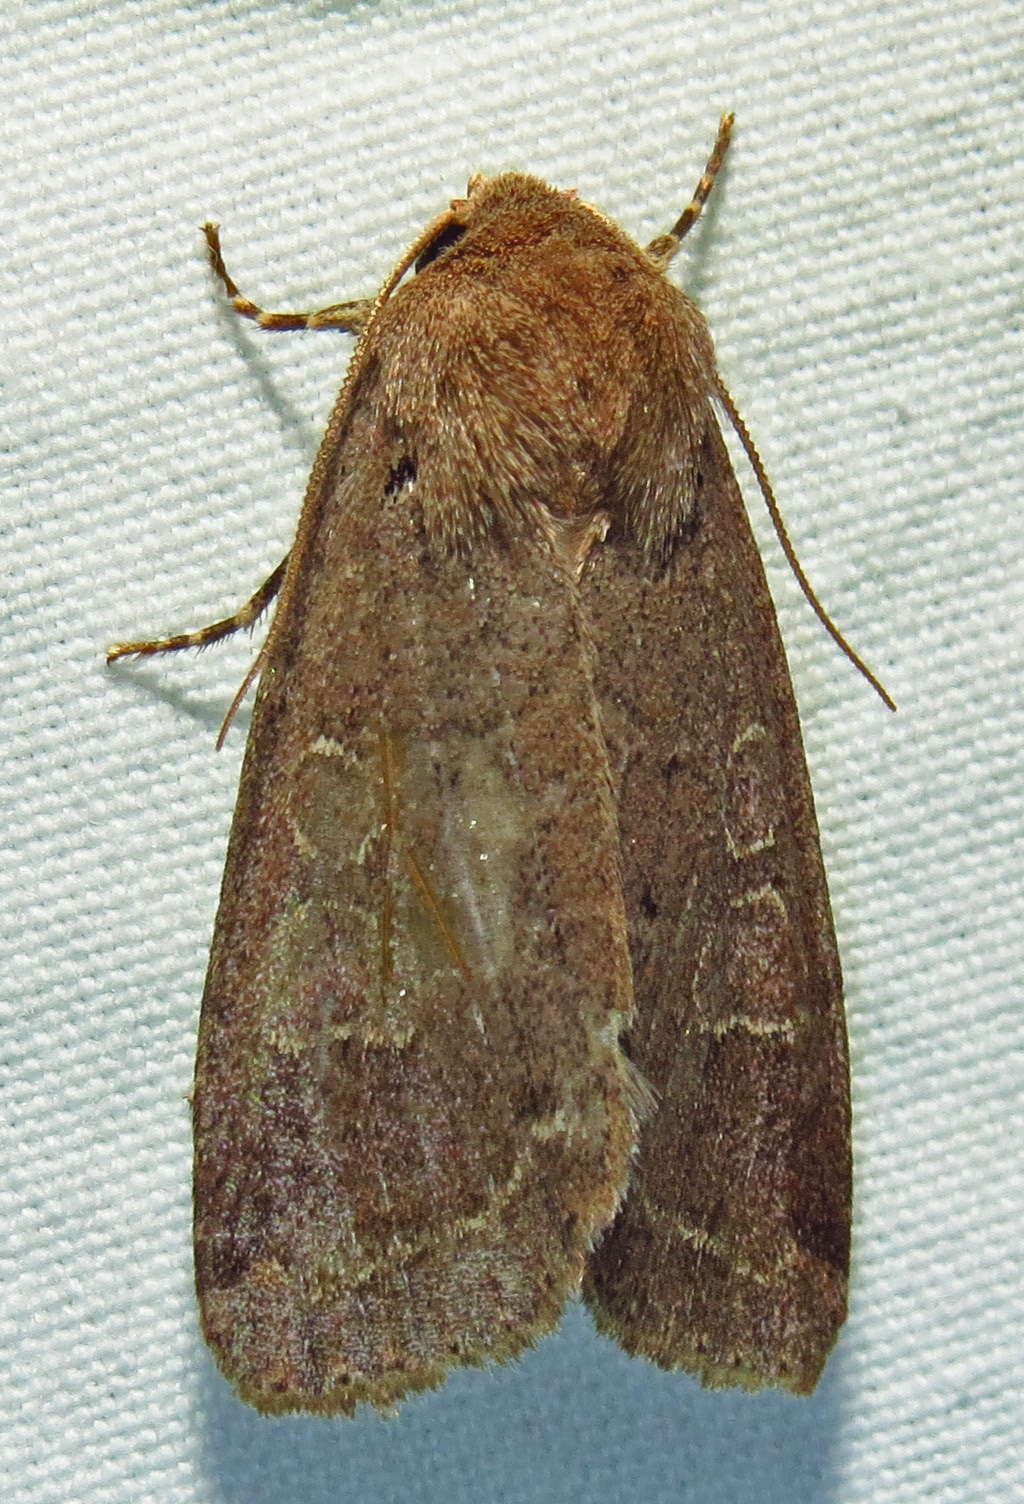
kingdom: Animalia
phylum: Arthropoda
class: Insecta
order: Lepidoptera
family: Noctuidae
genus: Kocakina
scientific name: Kocakina fidelis
